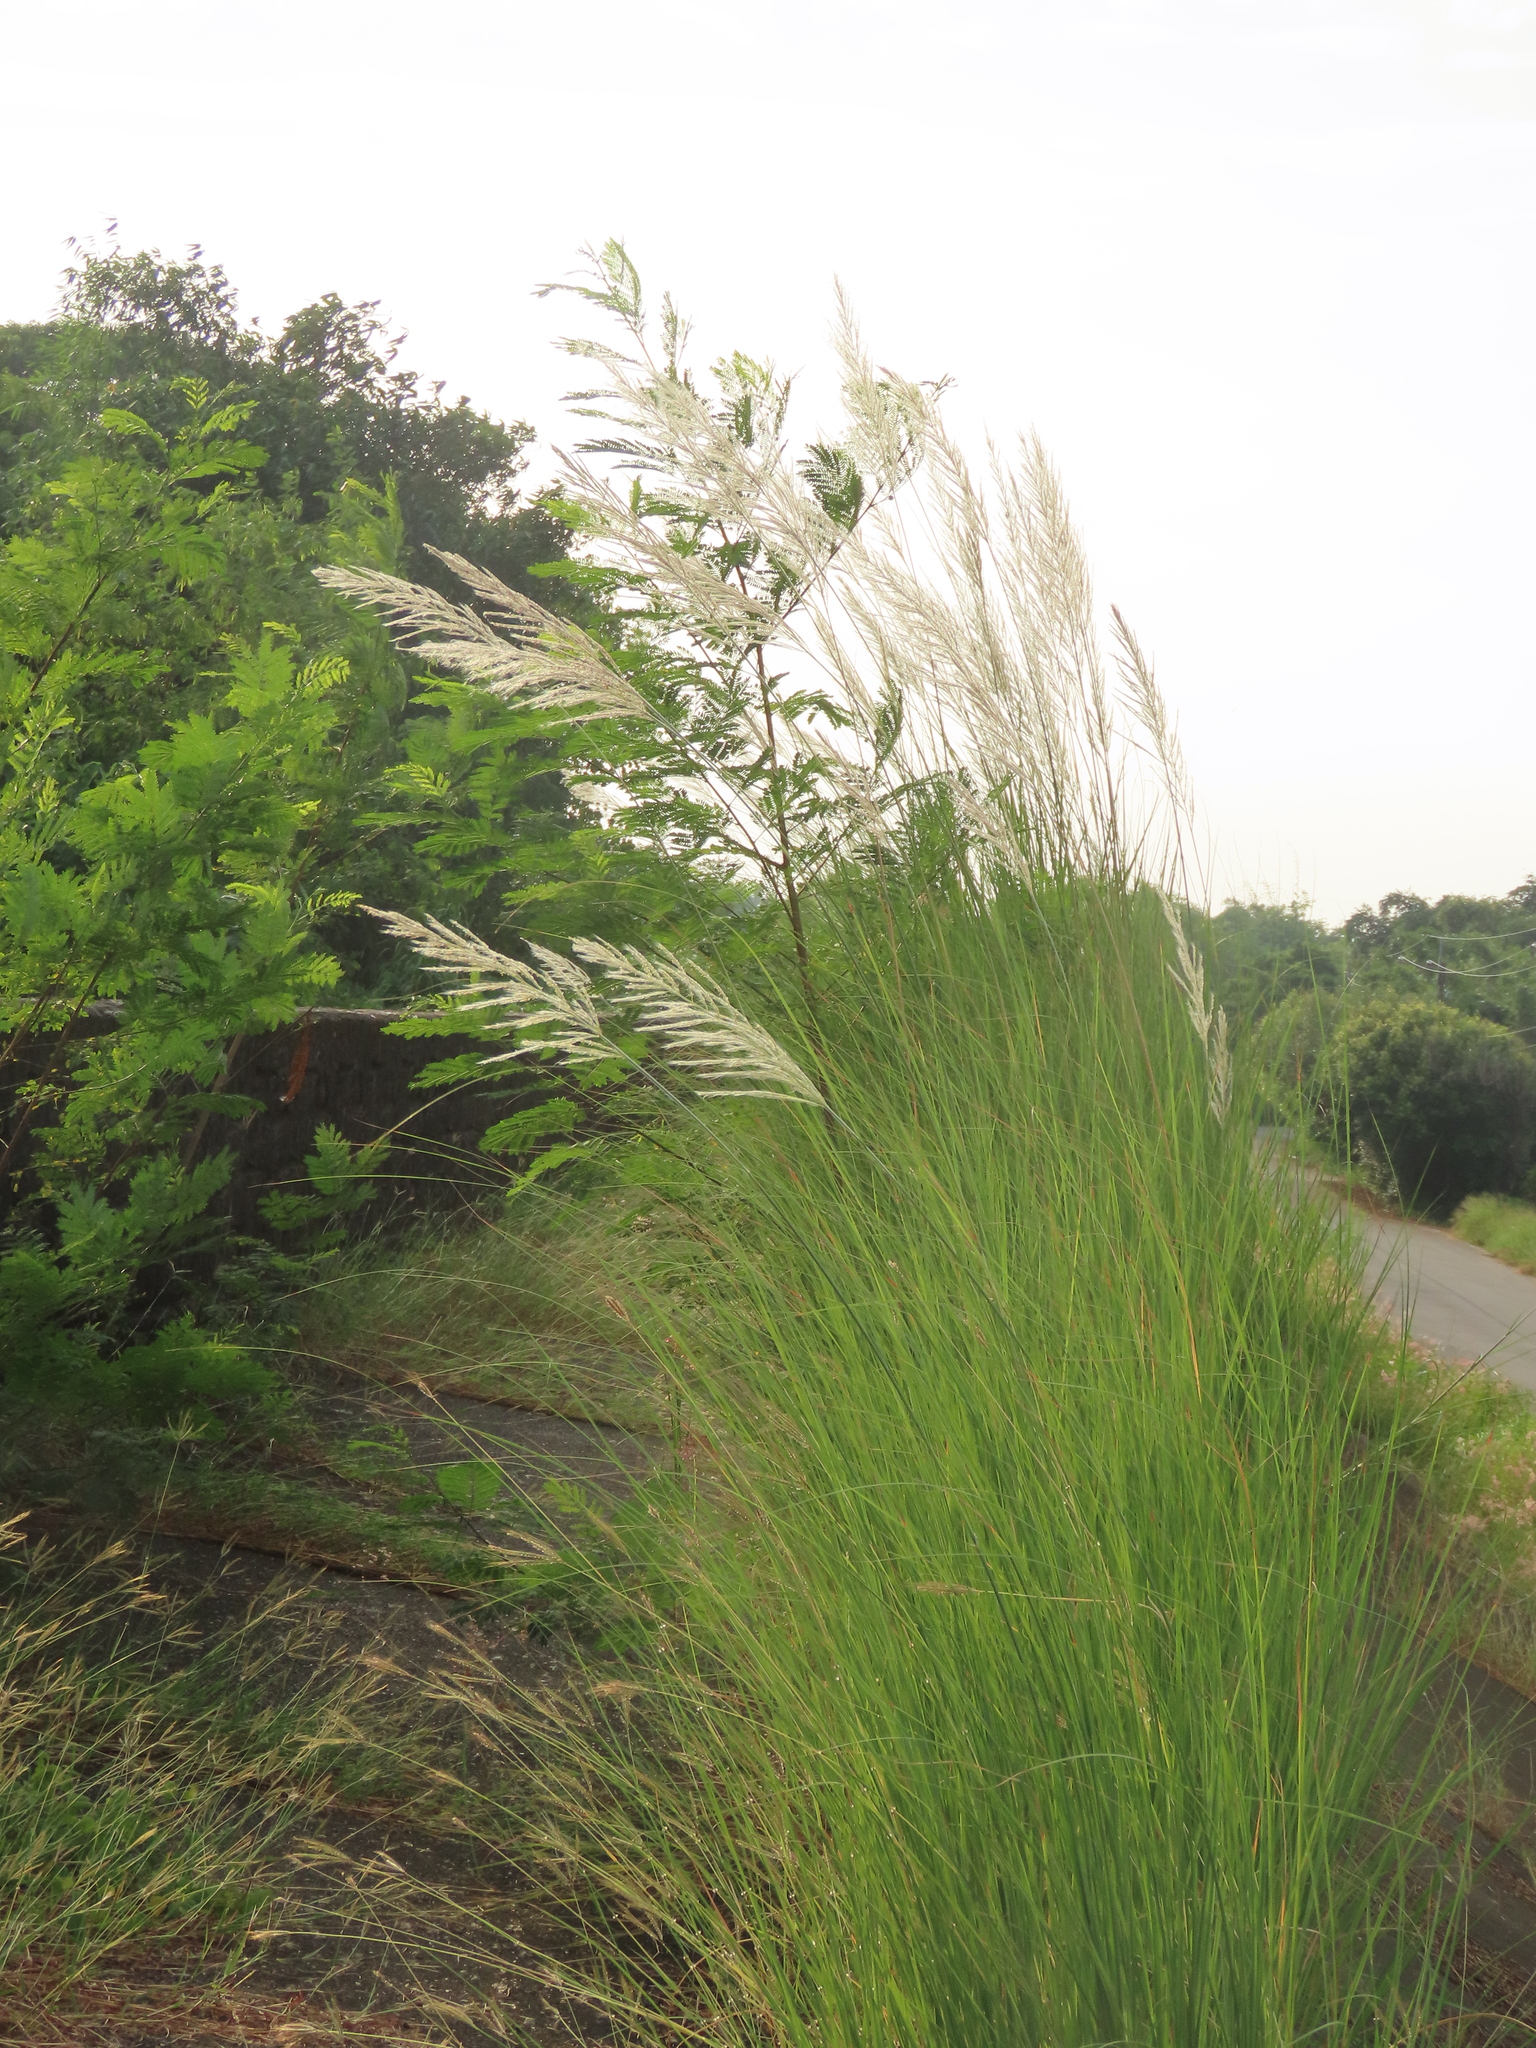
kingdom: Plantae
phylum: Tracheophyta
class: Liliopsida
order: Poales
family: Poaceae
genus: Saccharum
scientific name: Saccharum spontaneum
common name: Wild sugarcane
